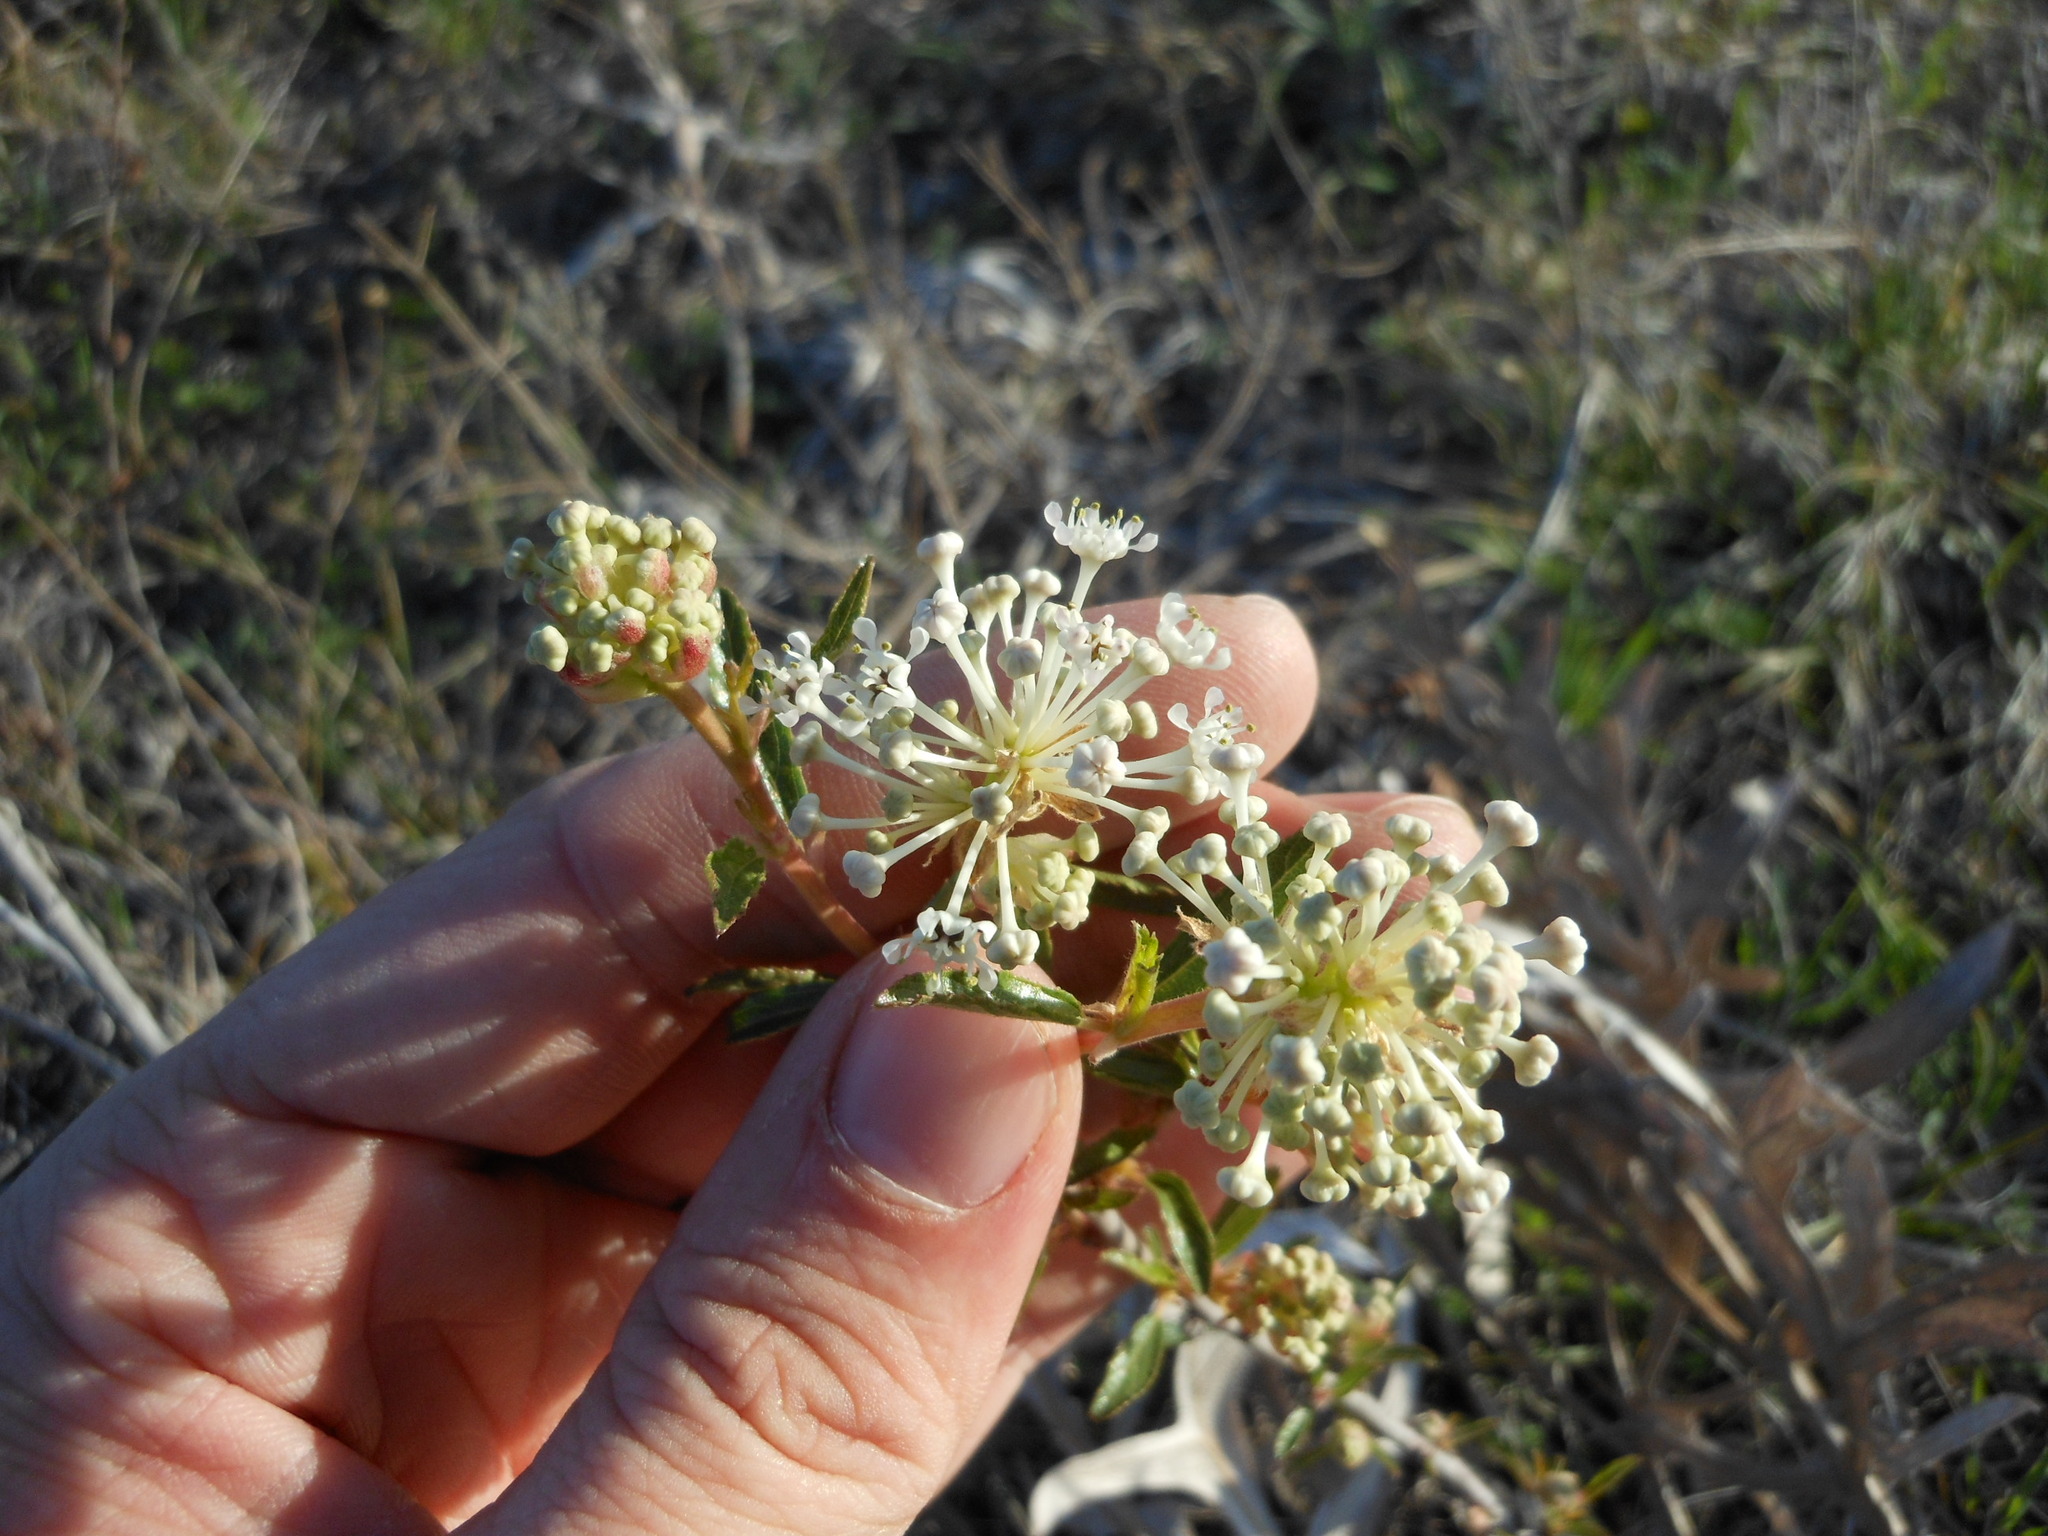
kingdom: Plantae
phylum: Tracheophyta
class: Magnoliopsida
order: Rosales
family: Rhamnaceae
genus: Ceanothus
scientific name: Ceanothus herbaceus
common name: Inland ceanothus
